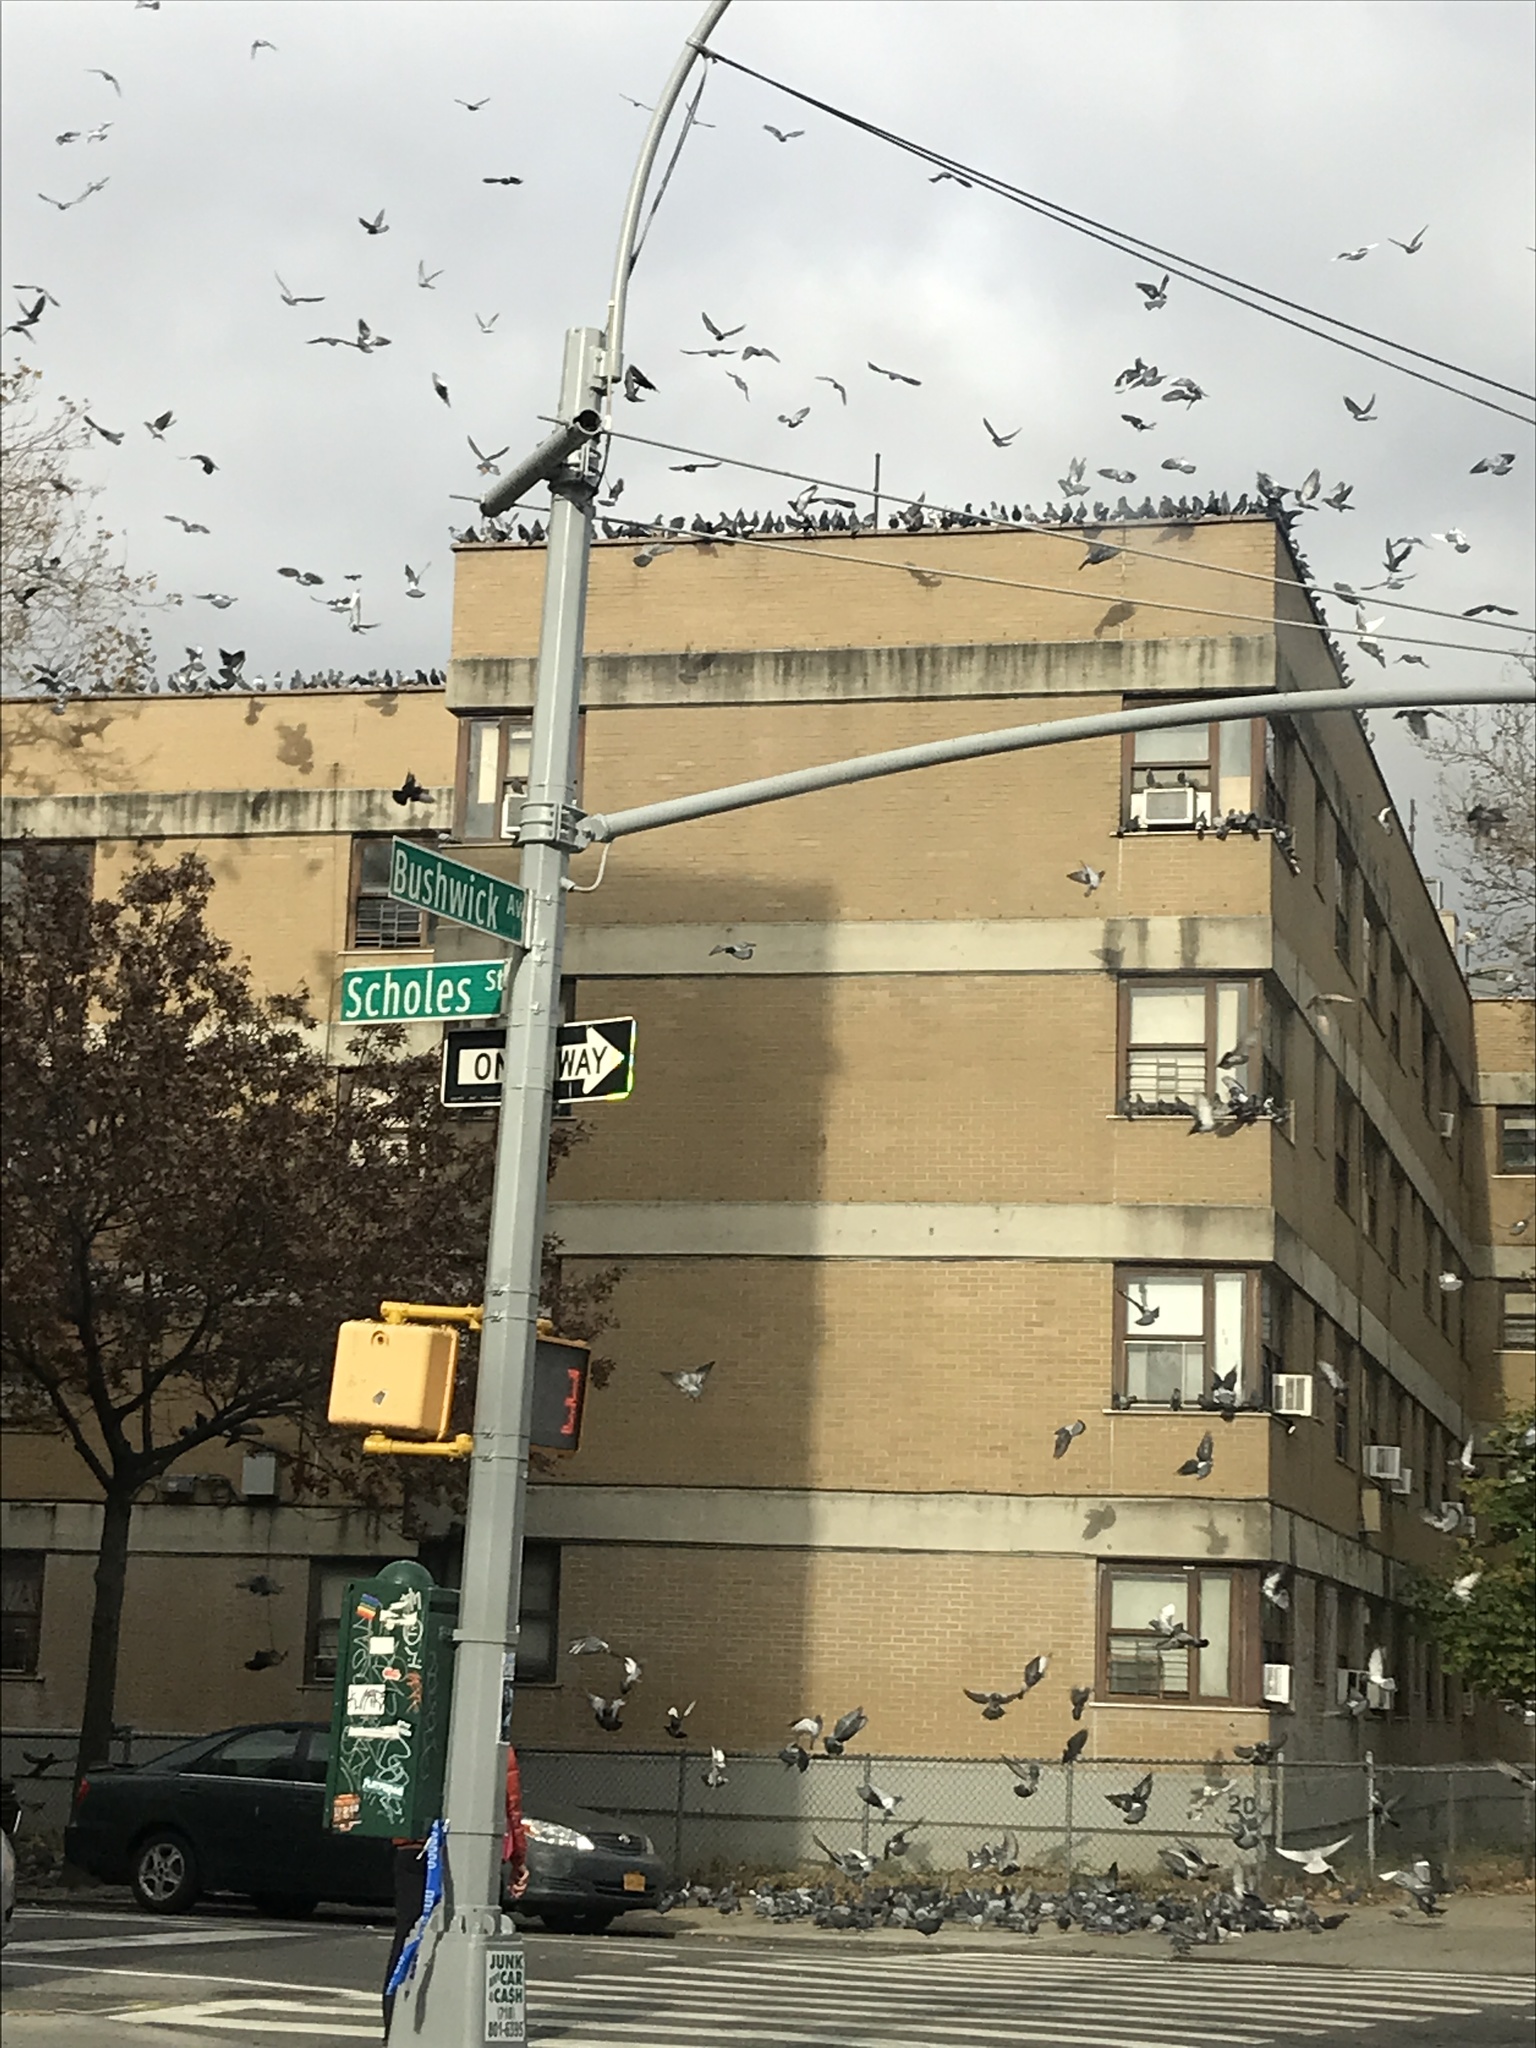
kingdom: Animalia
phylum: Chordata
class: Aves
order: Columbiformes
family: Columbidae
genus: Columba
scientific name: Columba livia
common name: Rock pigeon
